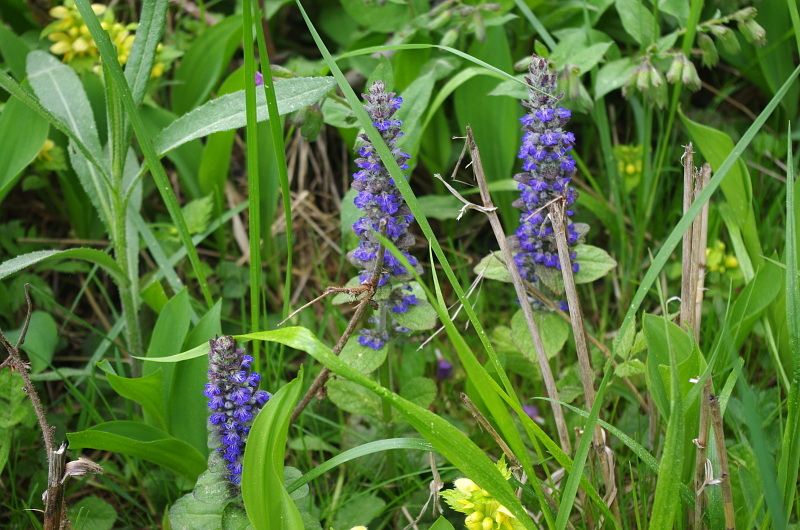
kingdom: Plantae
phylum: Tracheophyta
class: Magnoliopsida
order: Lamiales
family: Lamiaceae
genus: Ajuga
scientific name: Ajuga reptans
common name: Bugle
